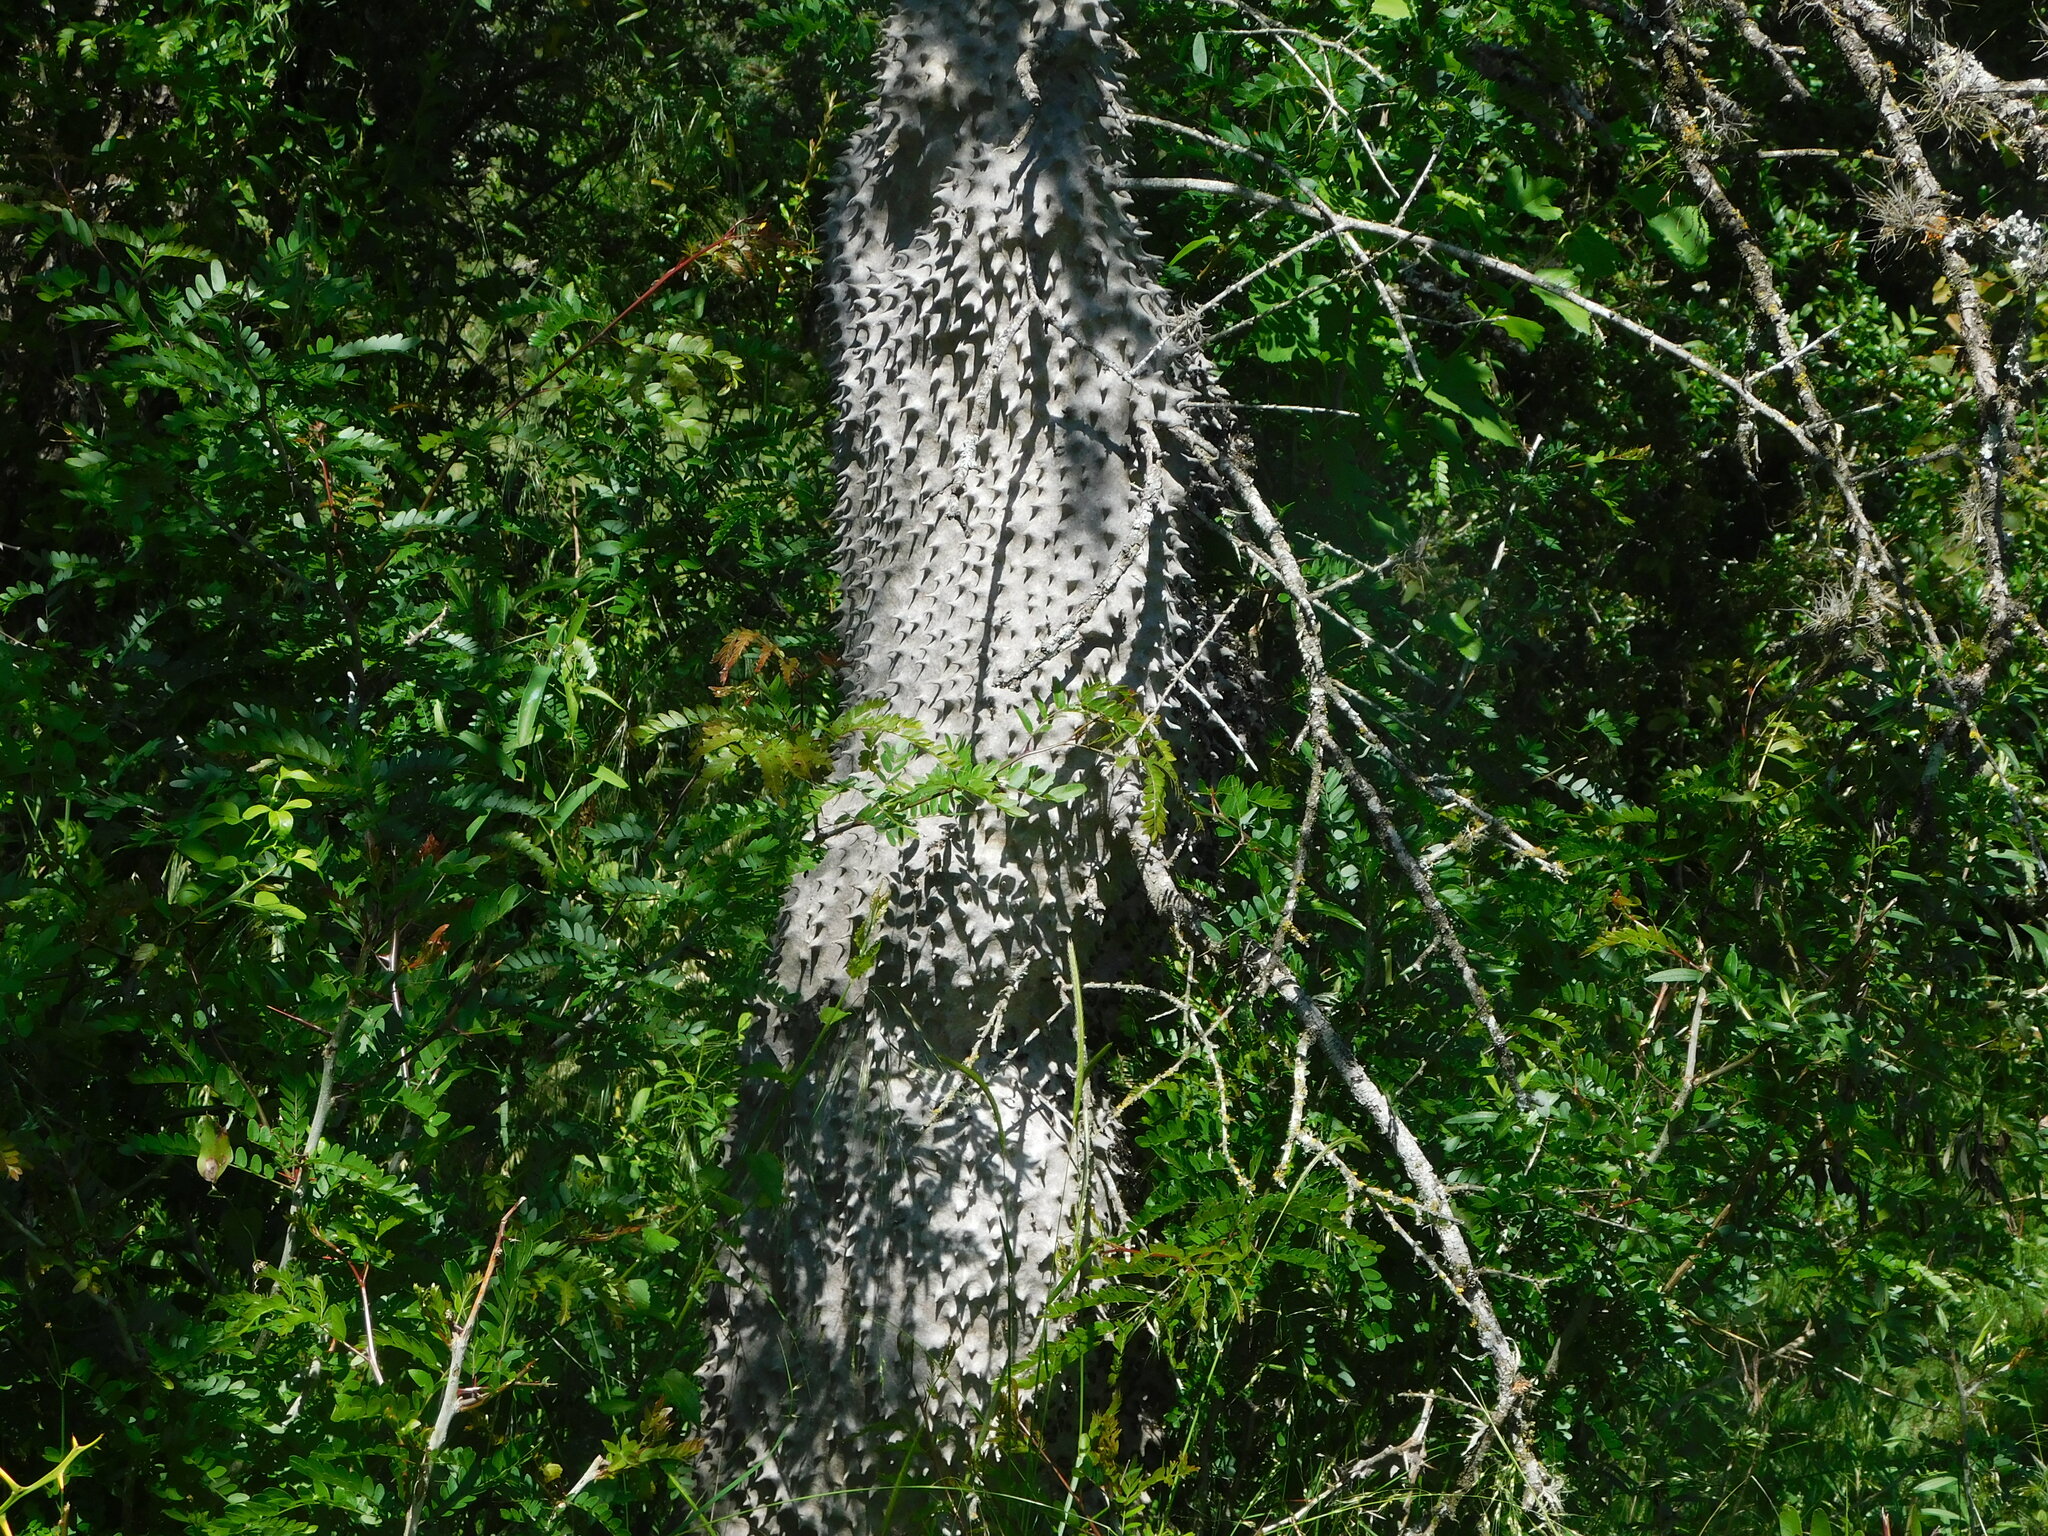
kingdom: Animalia
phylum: Arthropoda
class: Insecta
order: Hymenoptera
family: Eumenidae
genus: Polybia
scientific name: Polybia scutellaris
